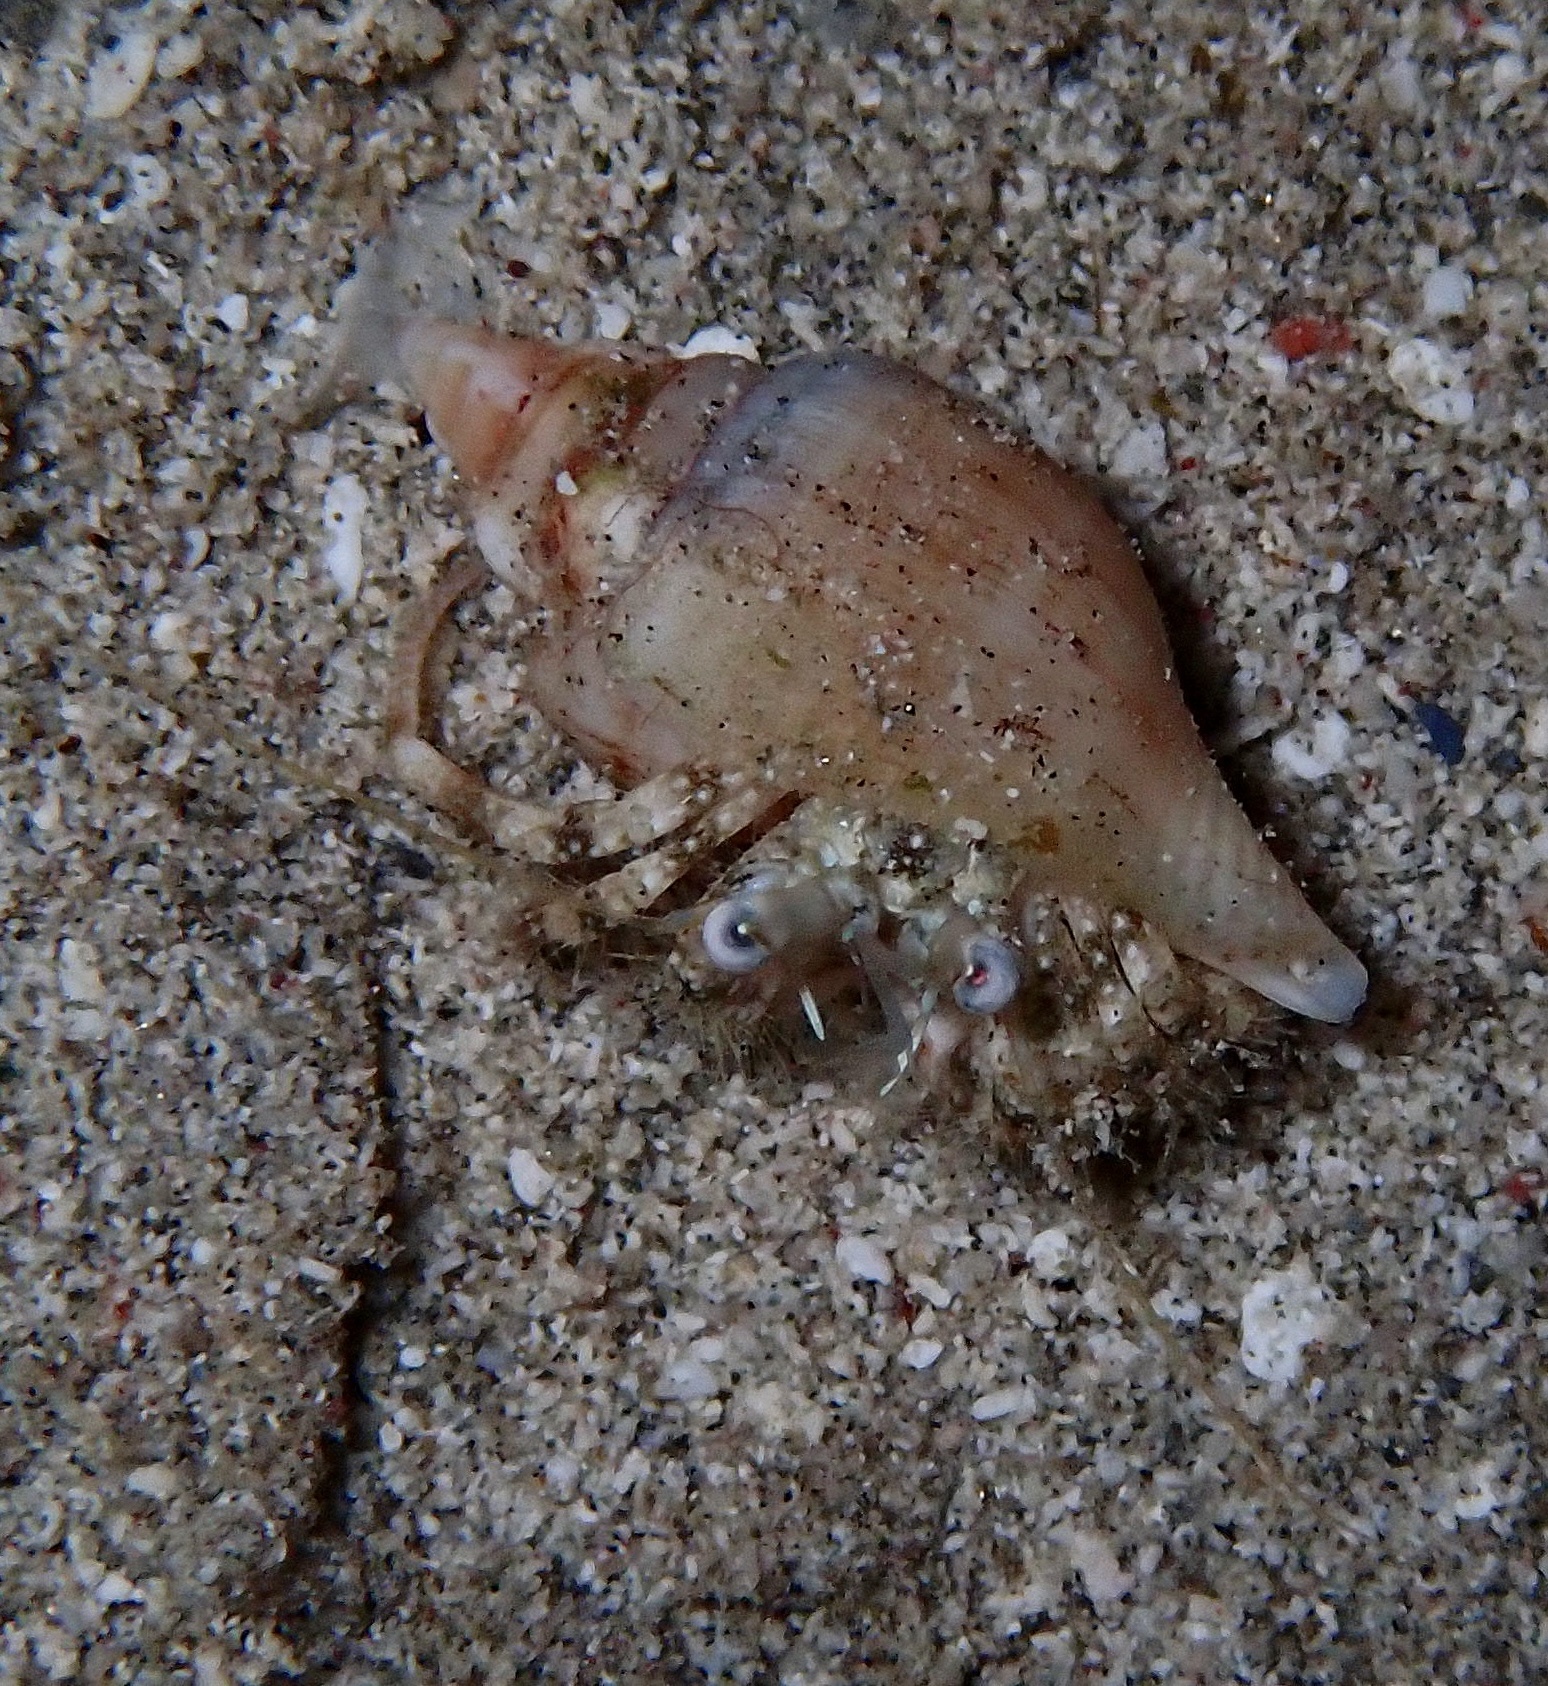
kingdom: Animalia
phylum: Arthropoda
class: Malacostraca
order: Decapoda
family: Diogenidae
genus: Dardanus
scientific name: Dardanus woodmasoni
